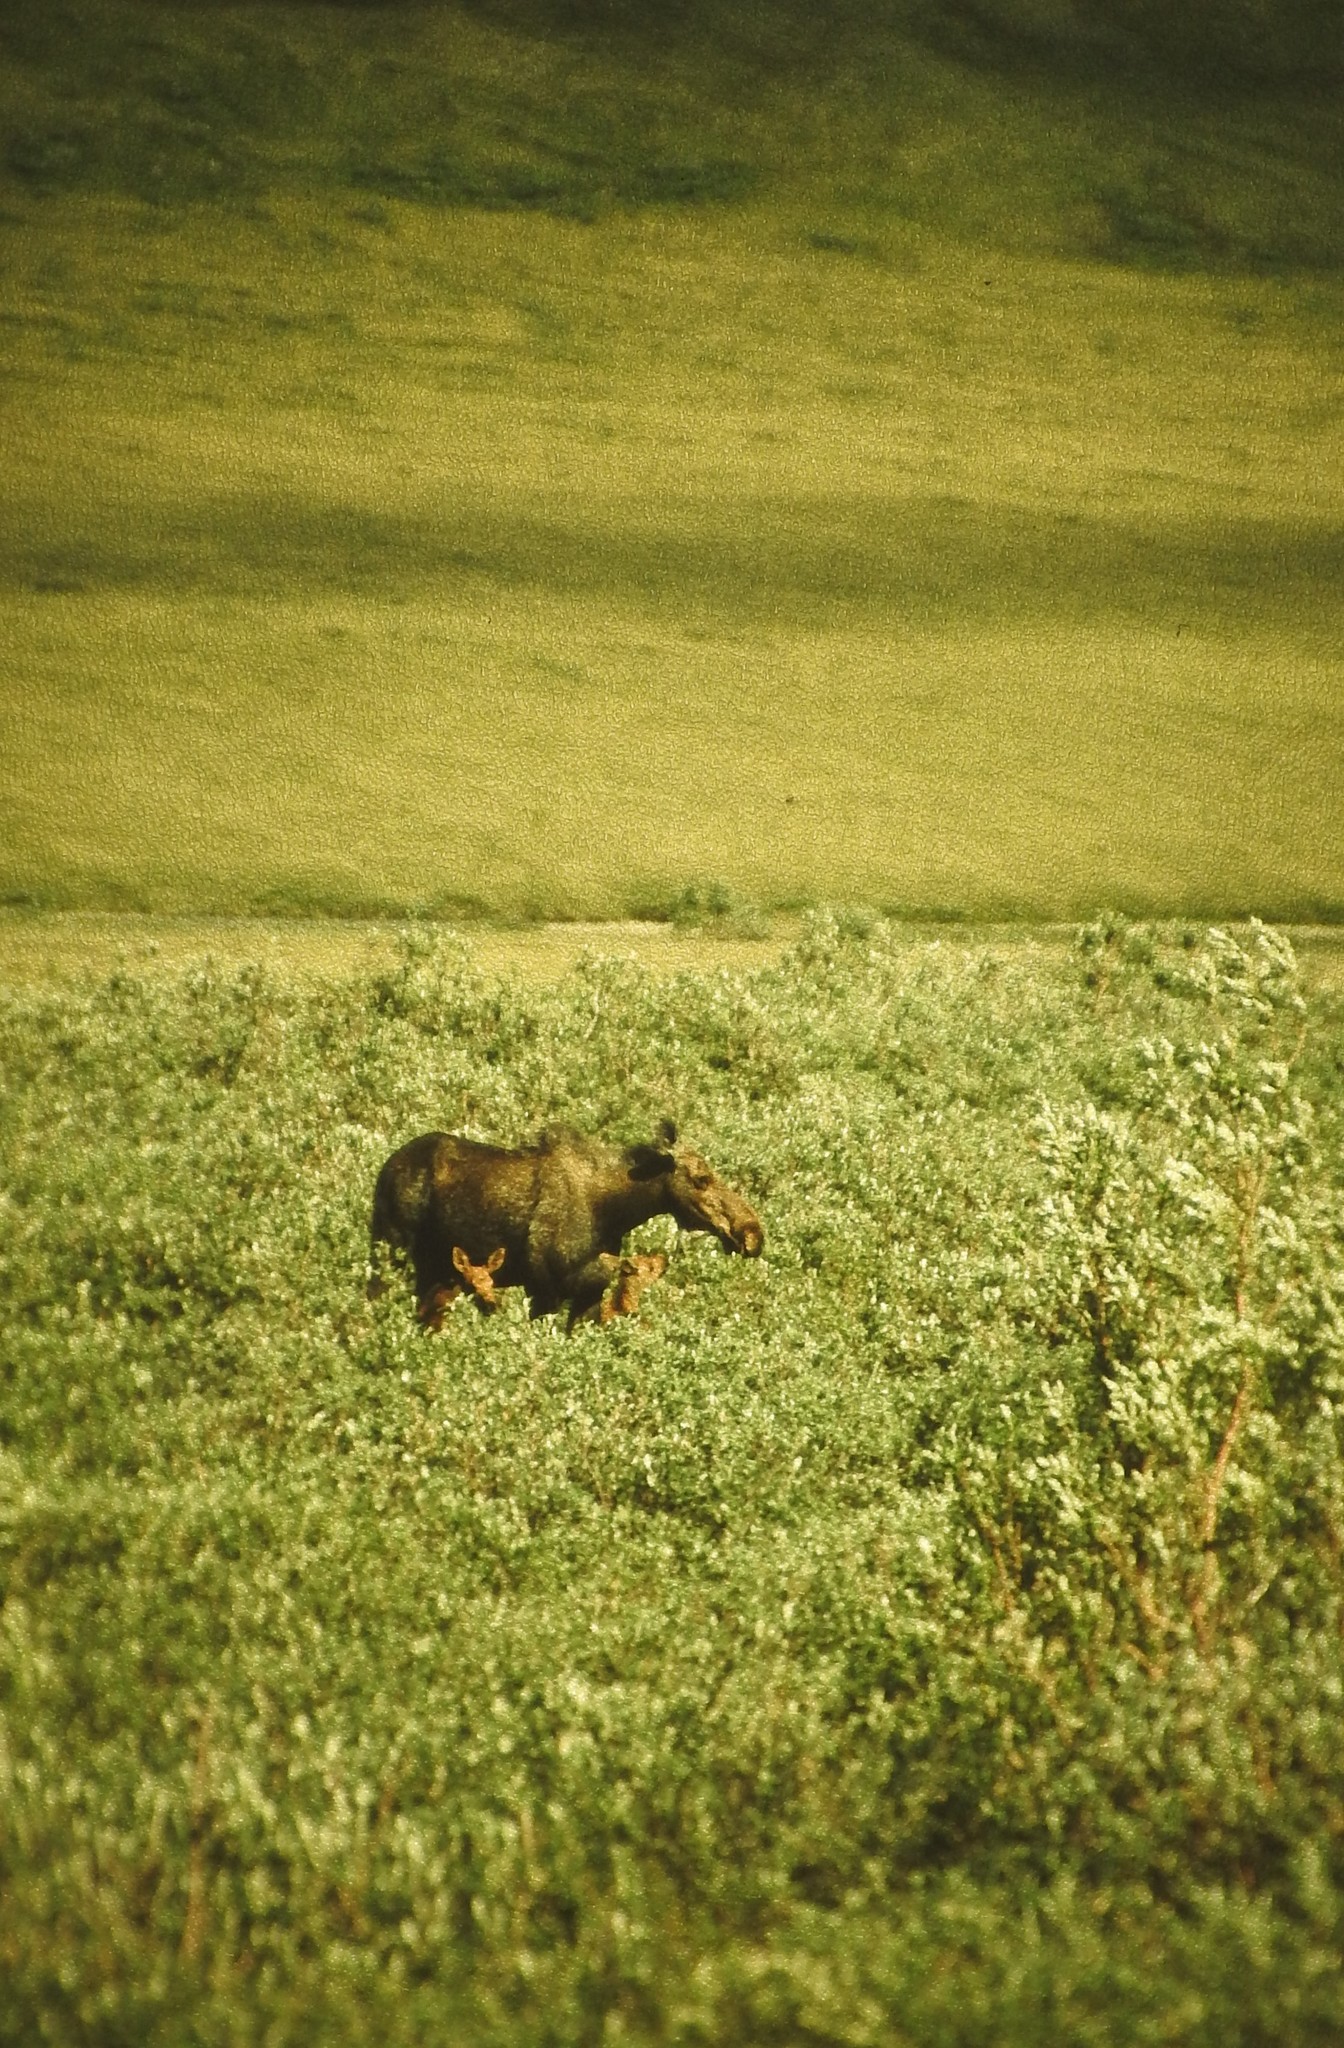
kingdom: Animalia
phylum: Chordata
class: Mammalia
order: Artiodactyla
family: Cervidae
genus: Alces
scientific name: Alces alces
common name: Moose
